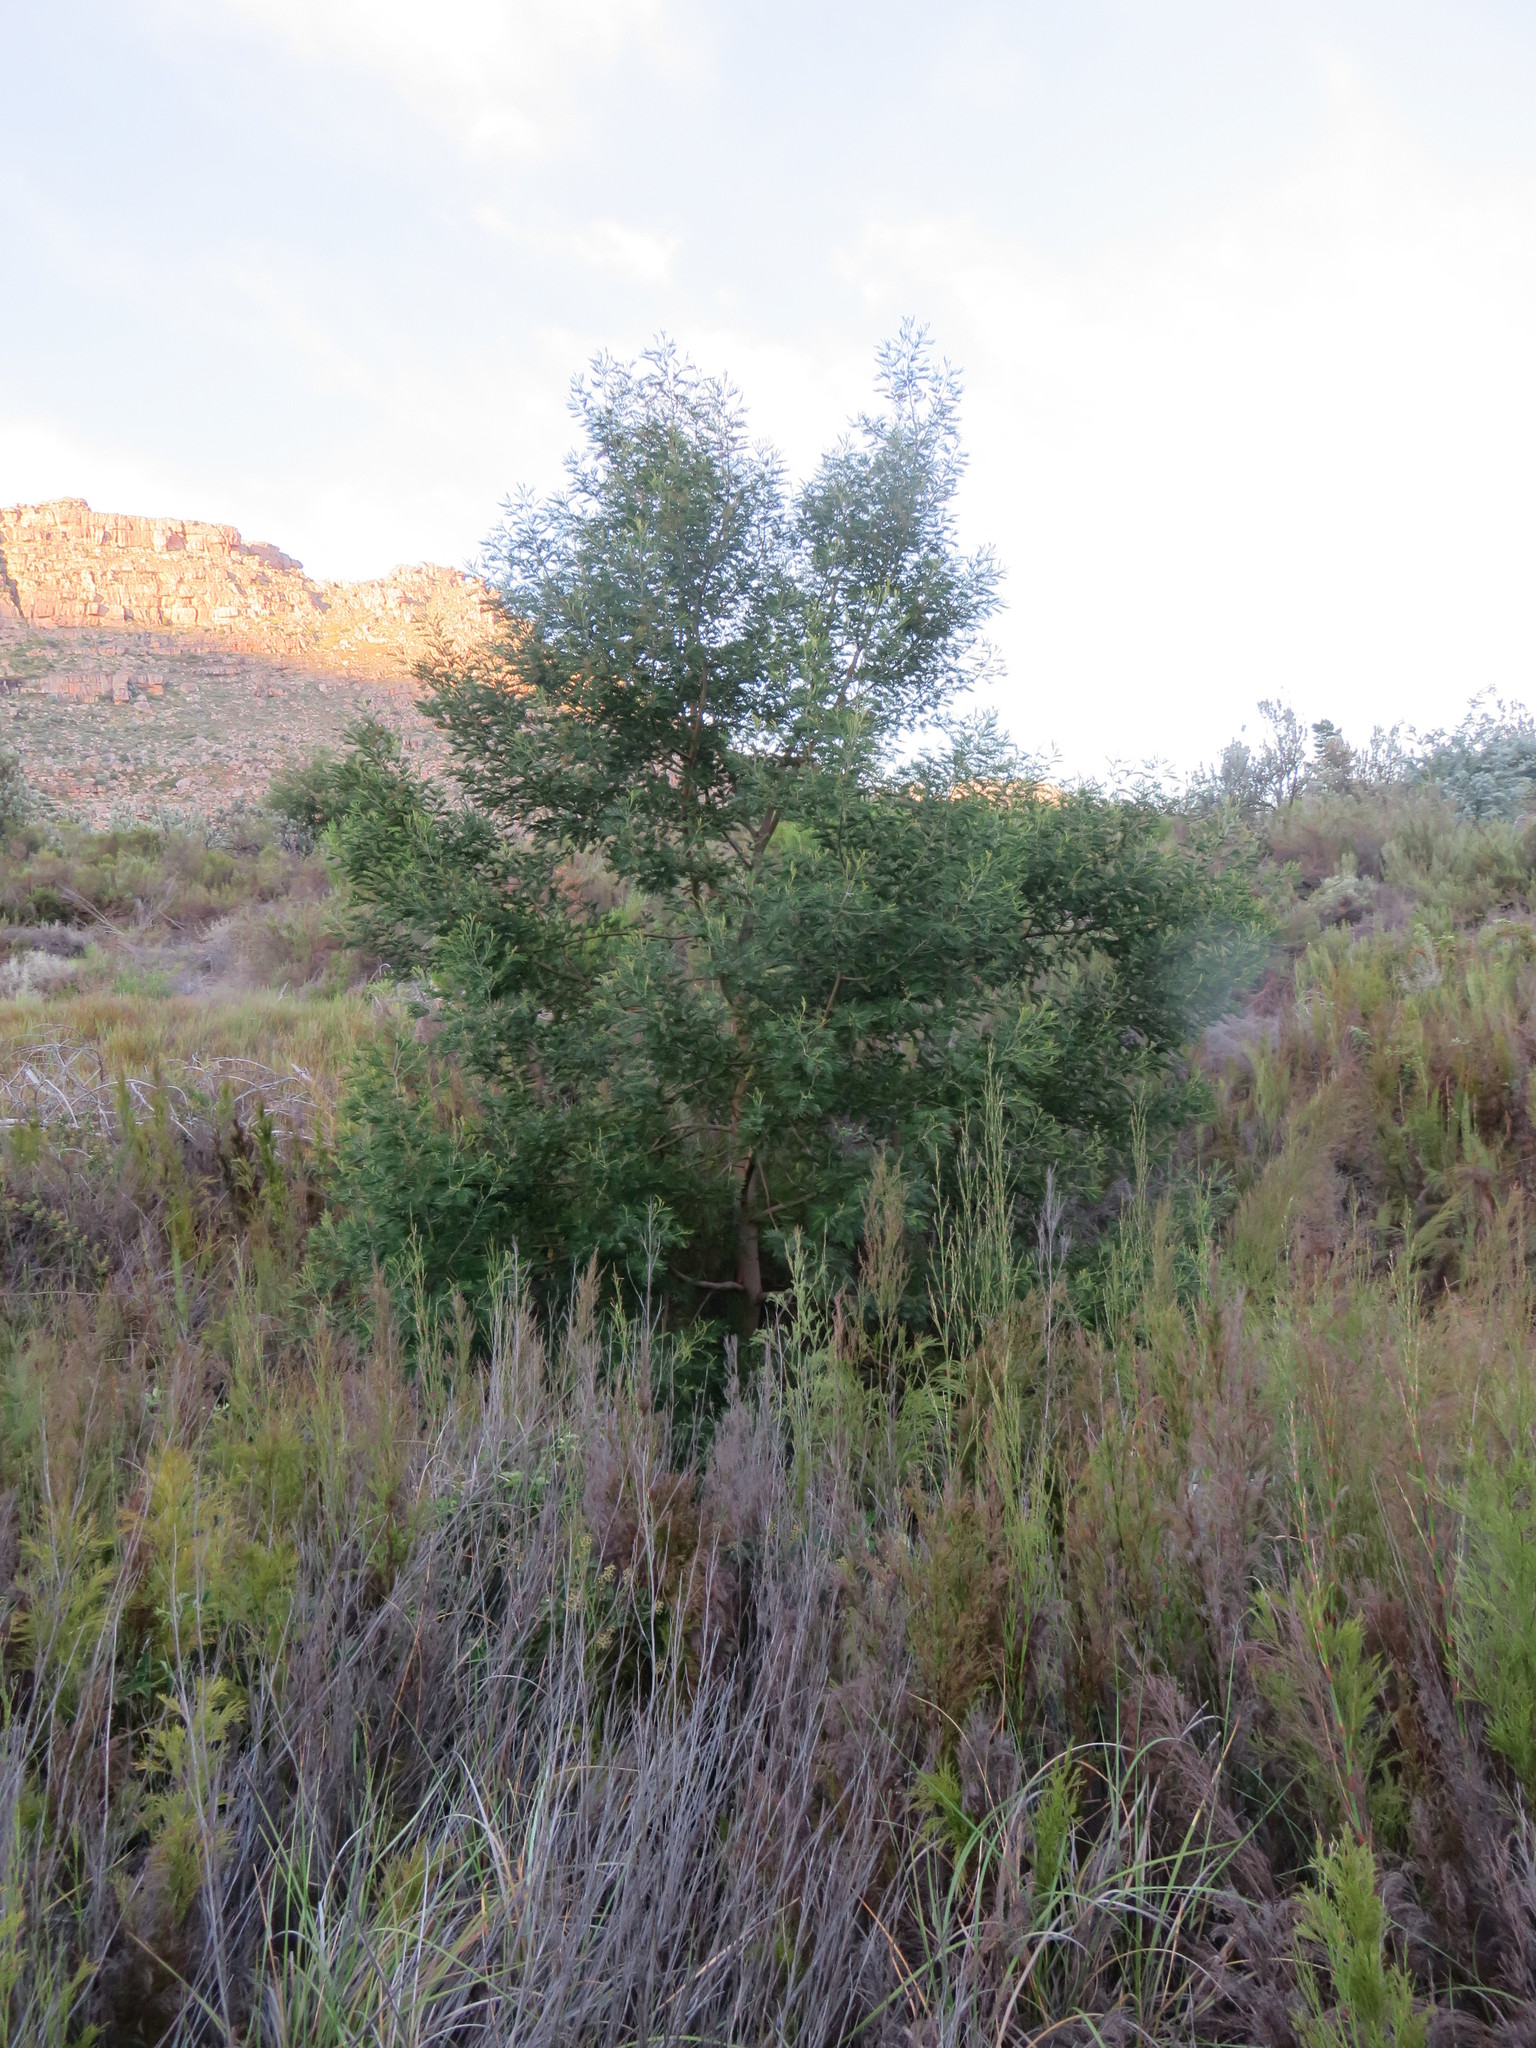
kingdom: Plantae
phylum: Tracheophyta
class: Magnoliopsida
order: Fabales
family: Fabaceae
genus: Acacia
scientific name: Acacia mearnsii
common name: Black wattle
